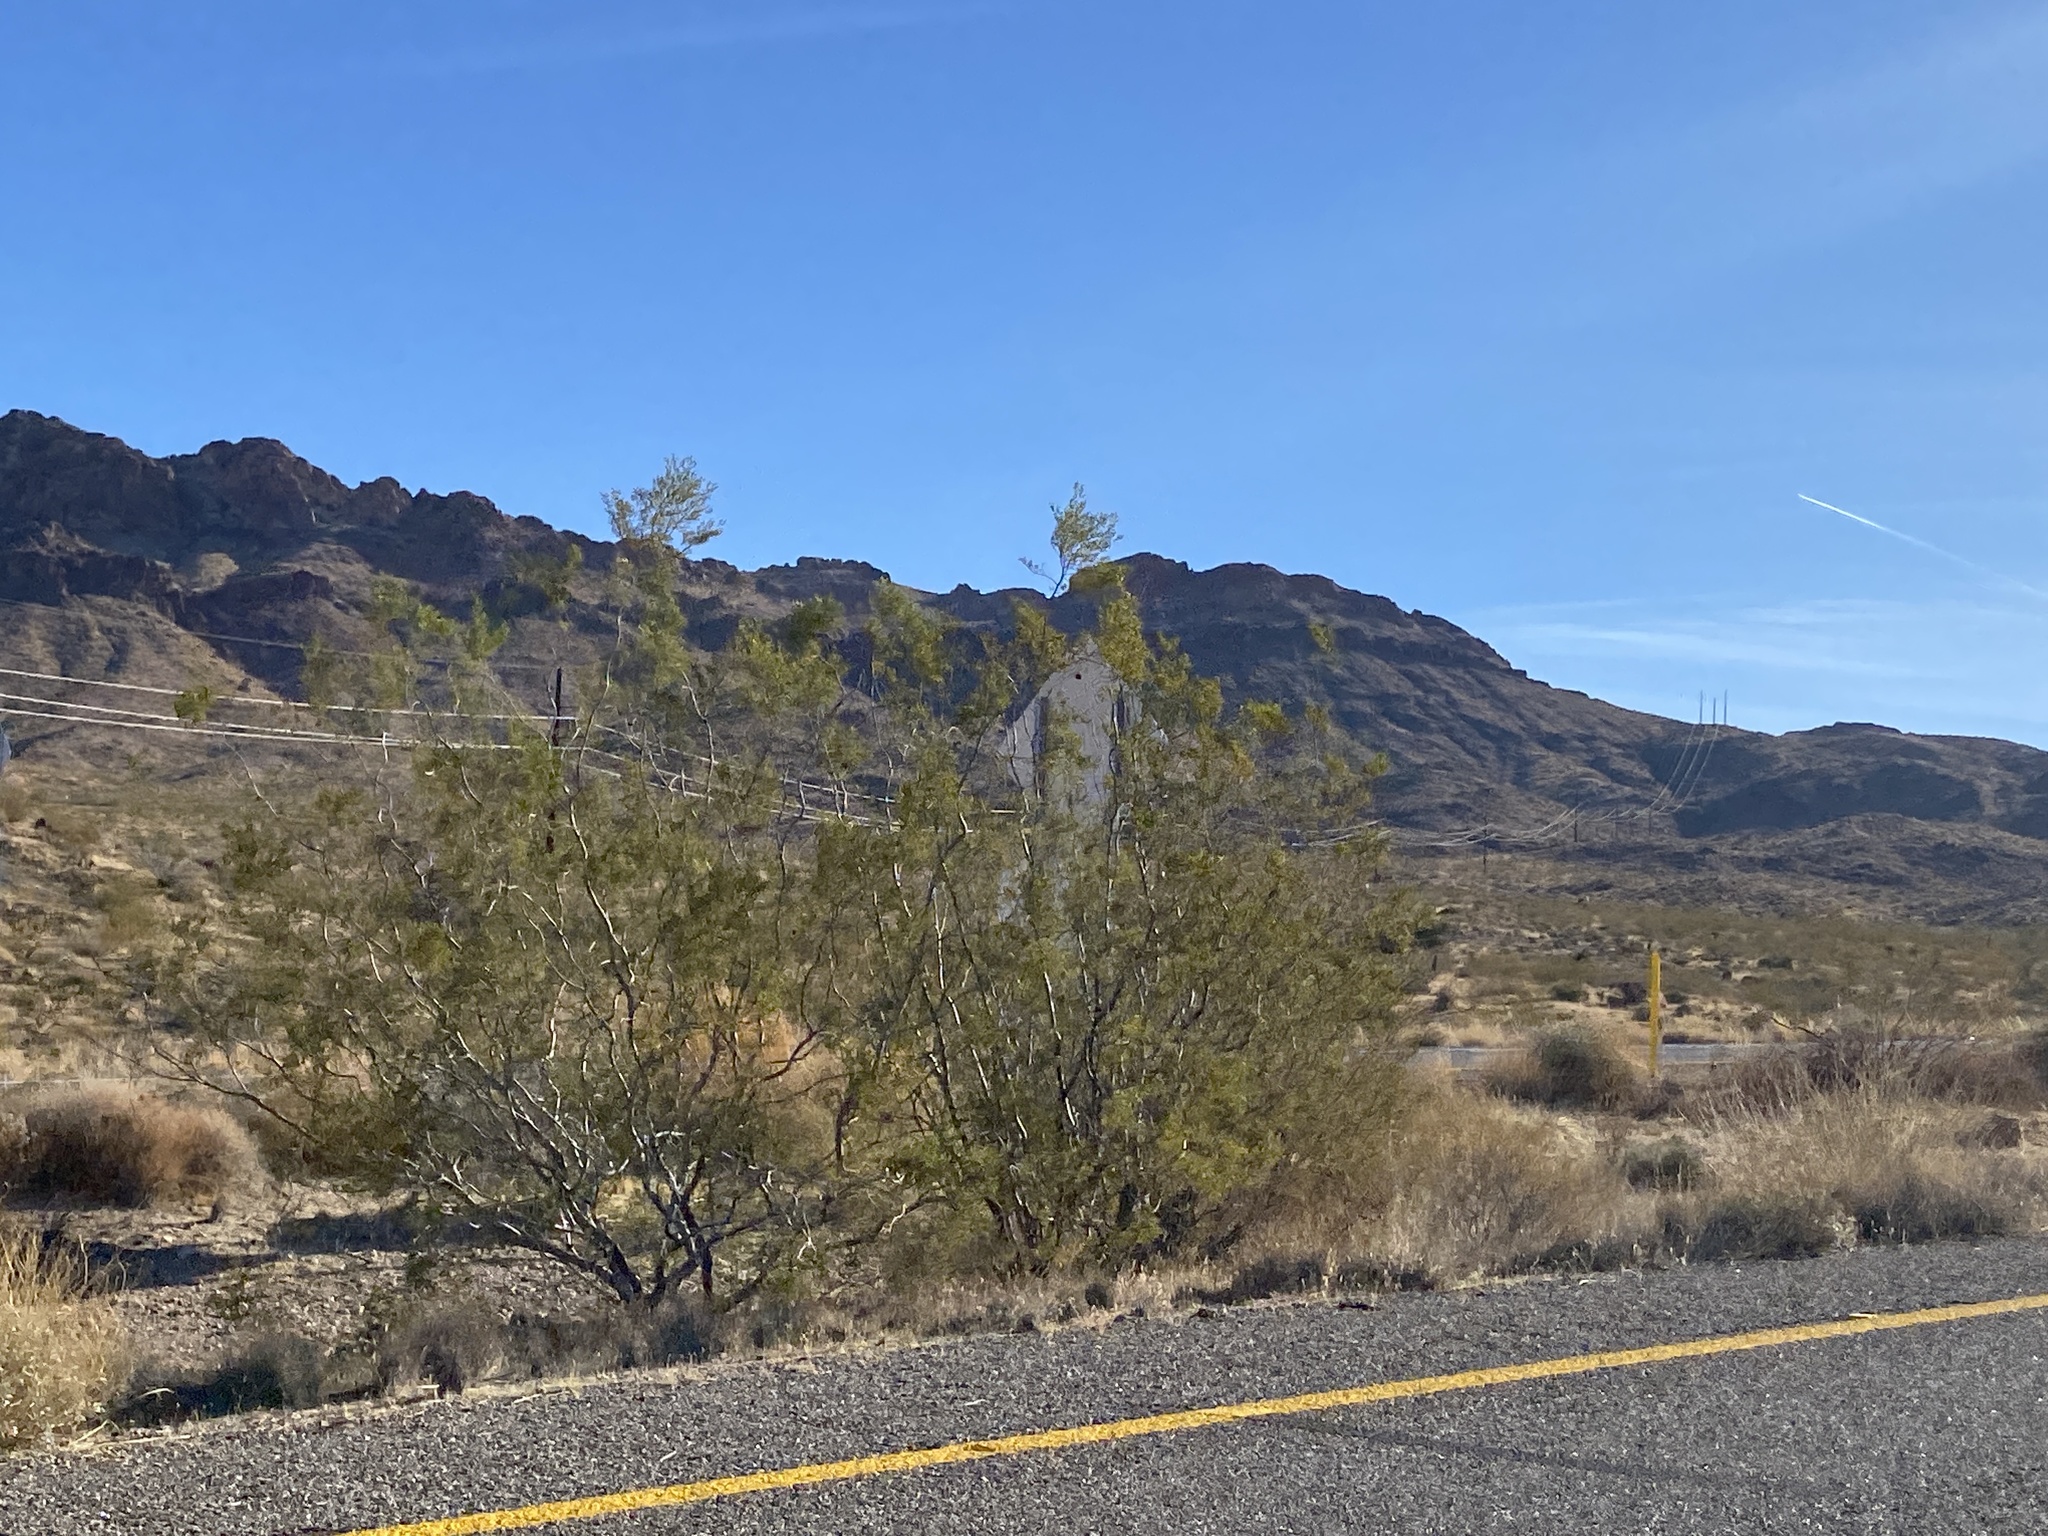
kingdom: Plantae
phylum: Tracheophyta
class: Magnoliopsida
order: Zygophyllales
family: Zygophyllaceae
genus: Larrea
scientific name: Larrea tridentata
